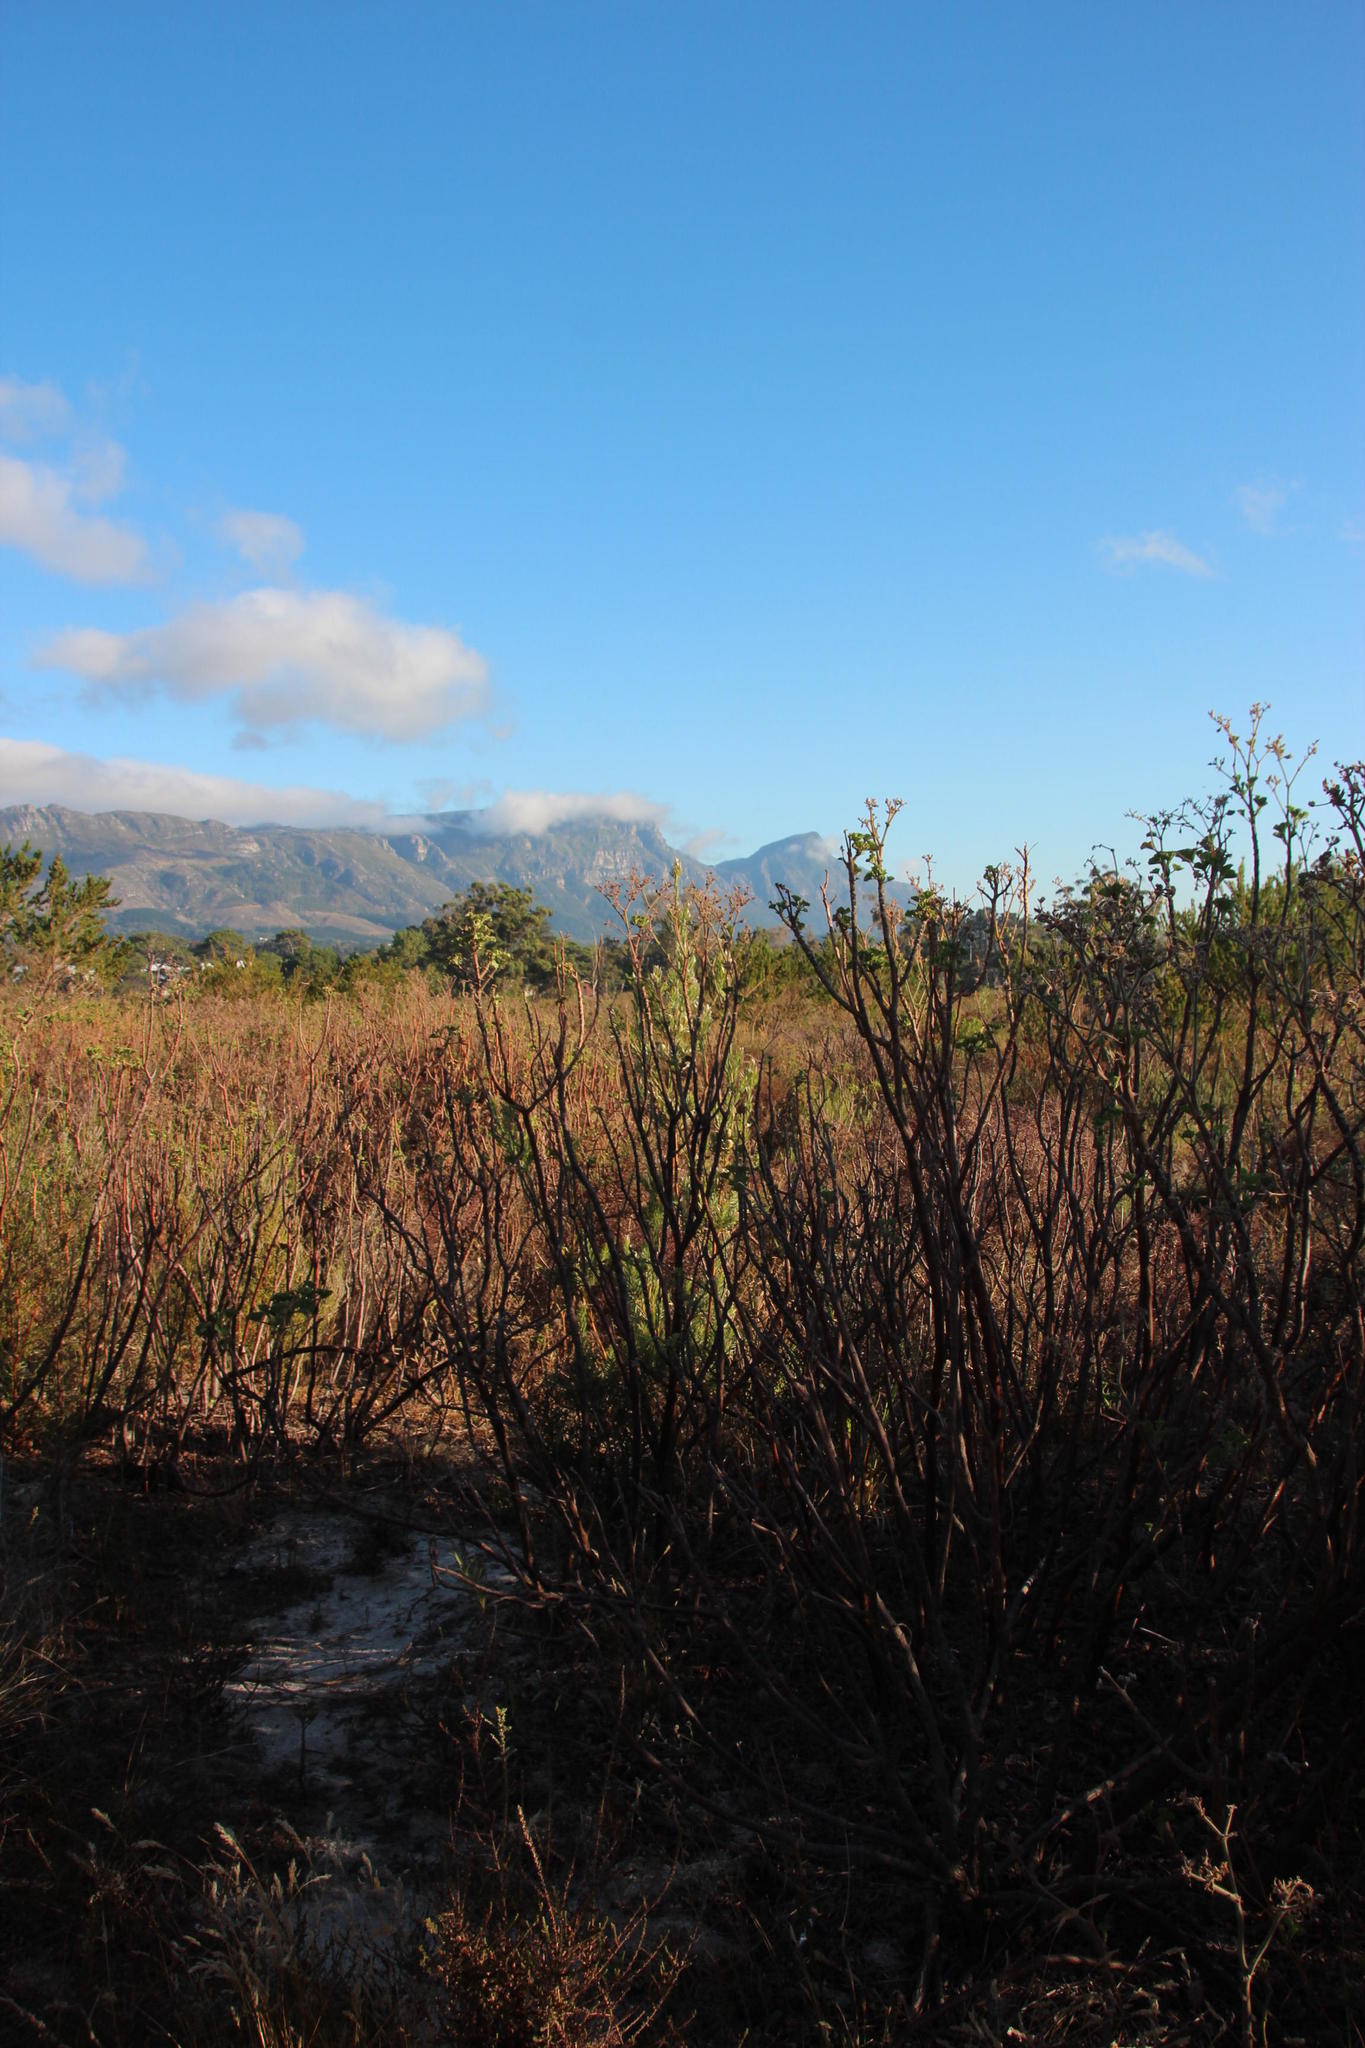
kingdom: Plantae
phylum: Tracheophyta
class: Magnoliopsida
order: Proteales
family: Proteaceae
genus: Leucadendron
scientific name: Leucadendron floridum
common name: Flats conebush
